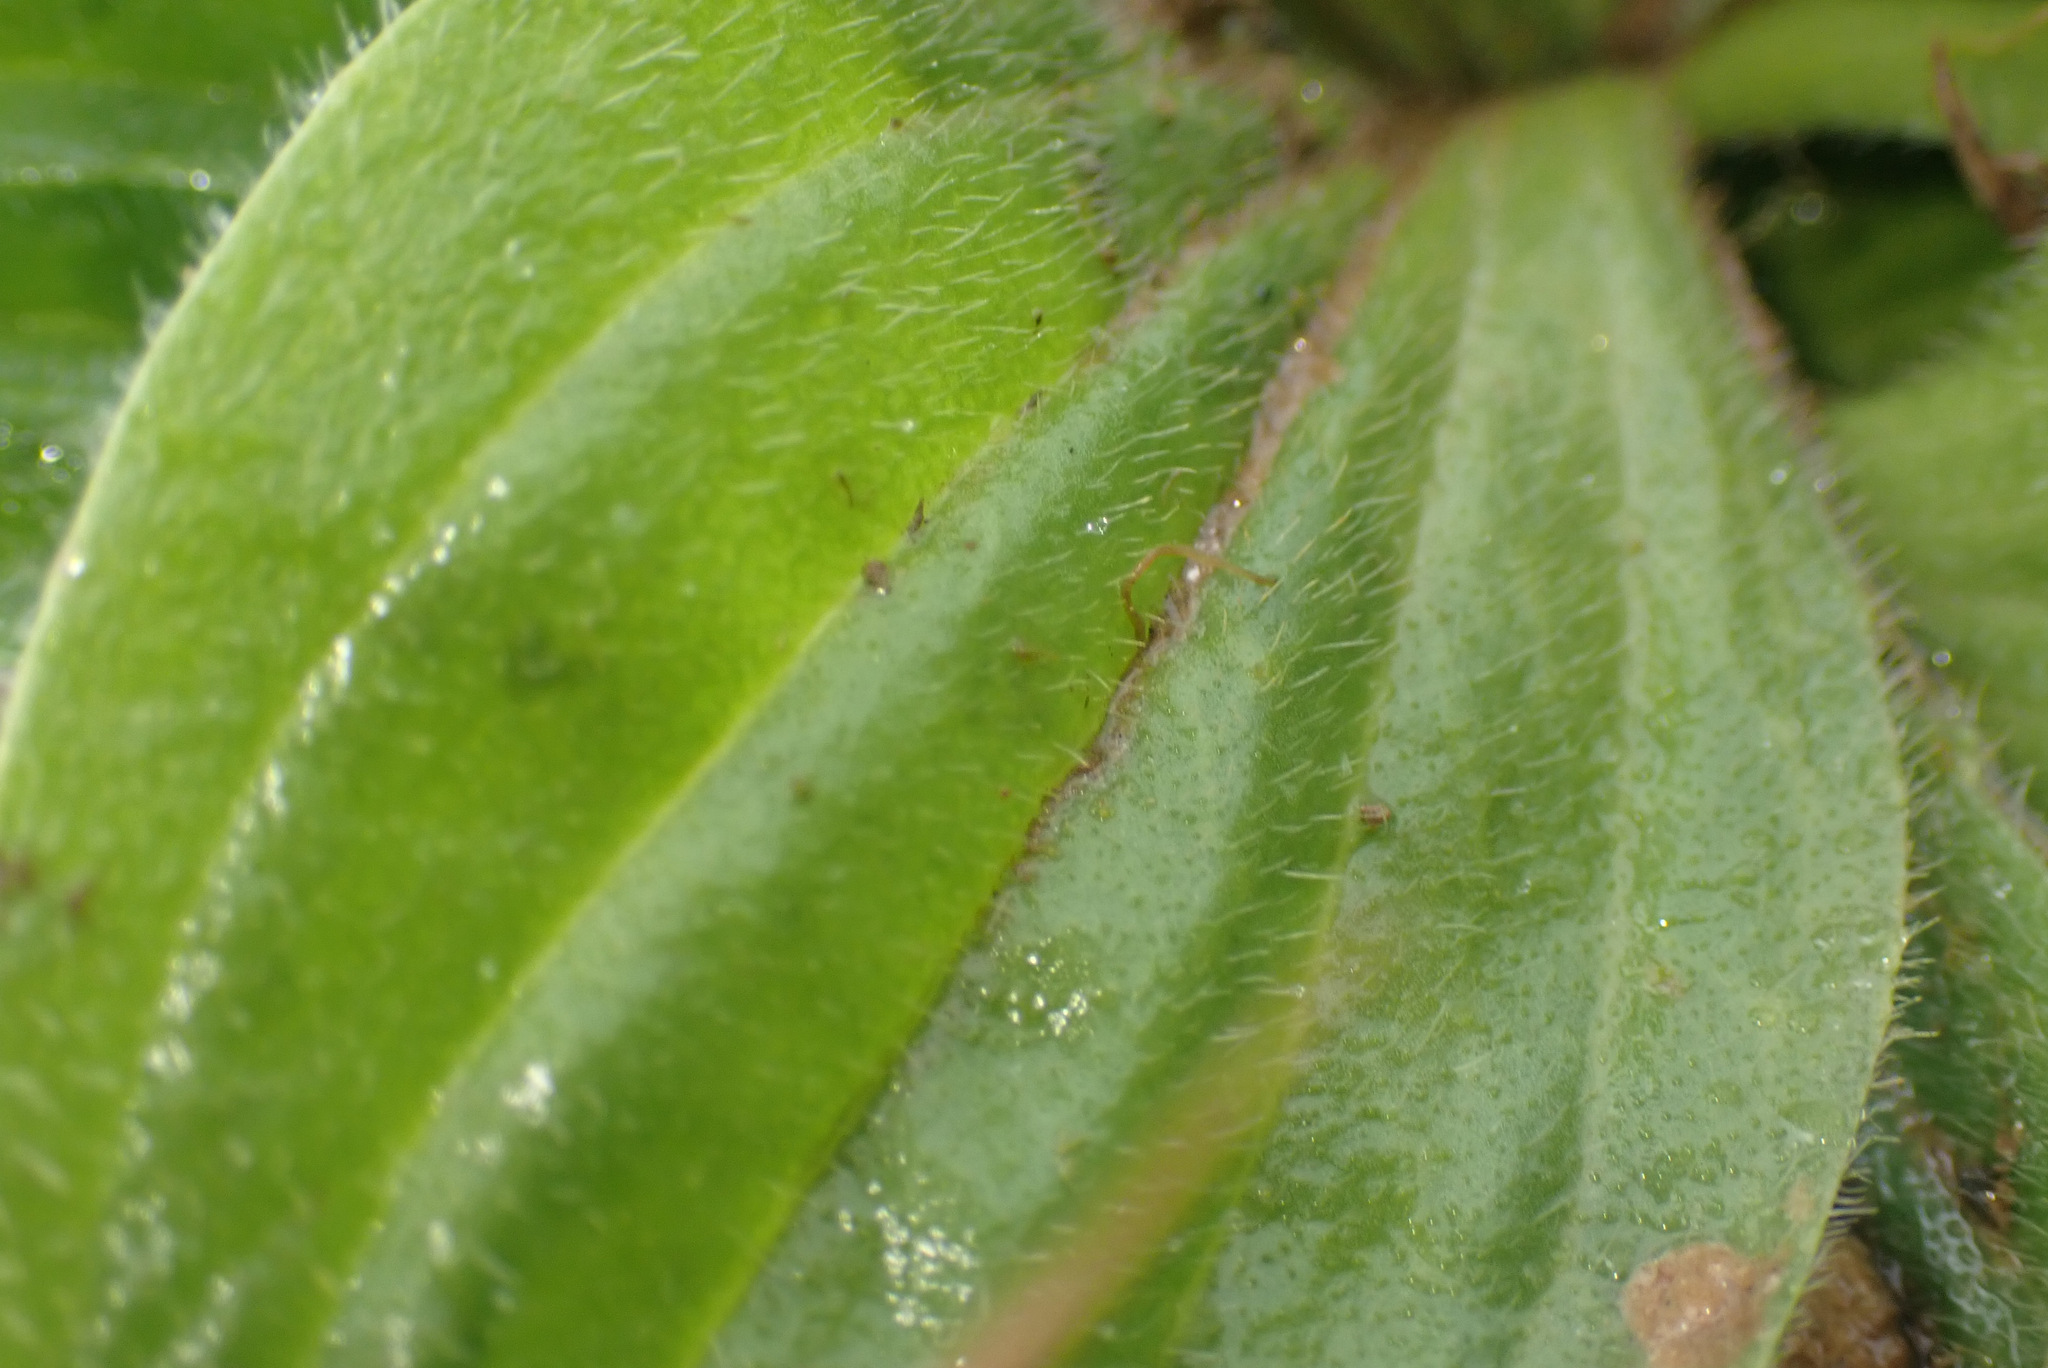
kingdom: Plantae
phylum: Tracheophyta
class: Magnoliopsida
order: Lamiales
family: Plantaginaceae
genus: Plantago
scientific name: Plantago media
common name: Hoary plantain
